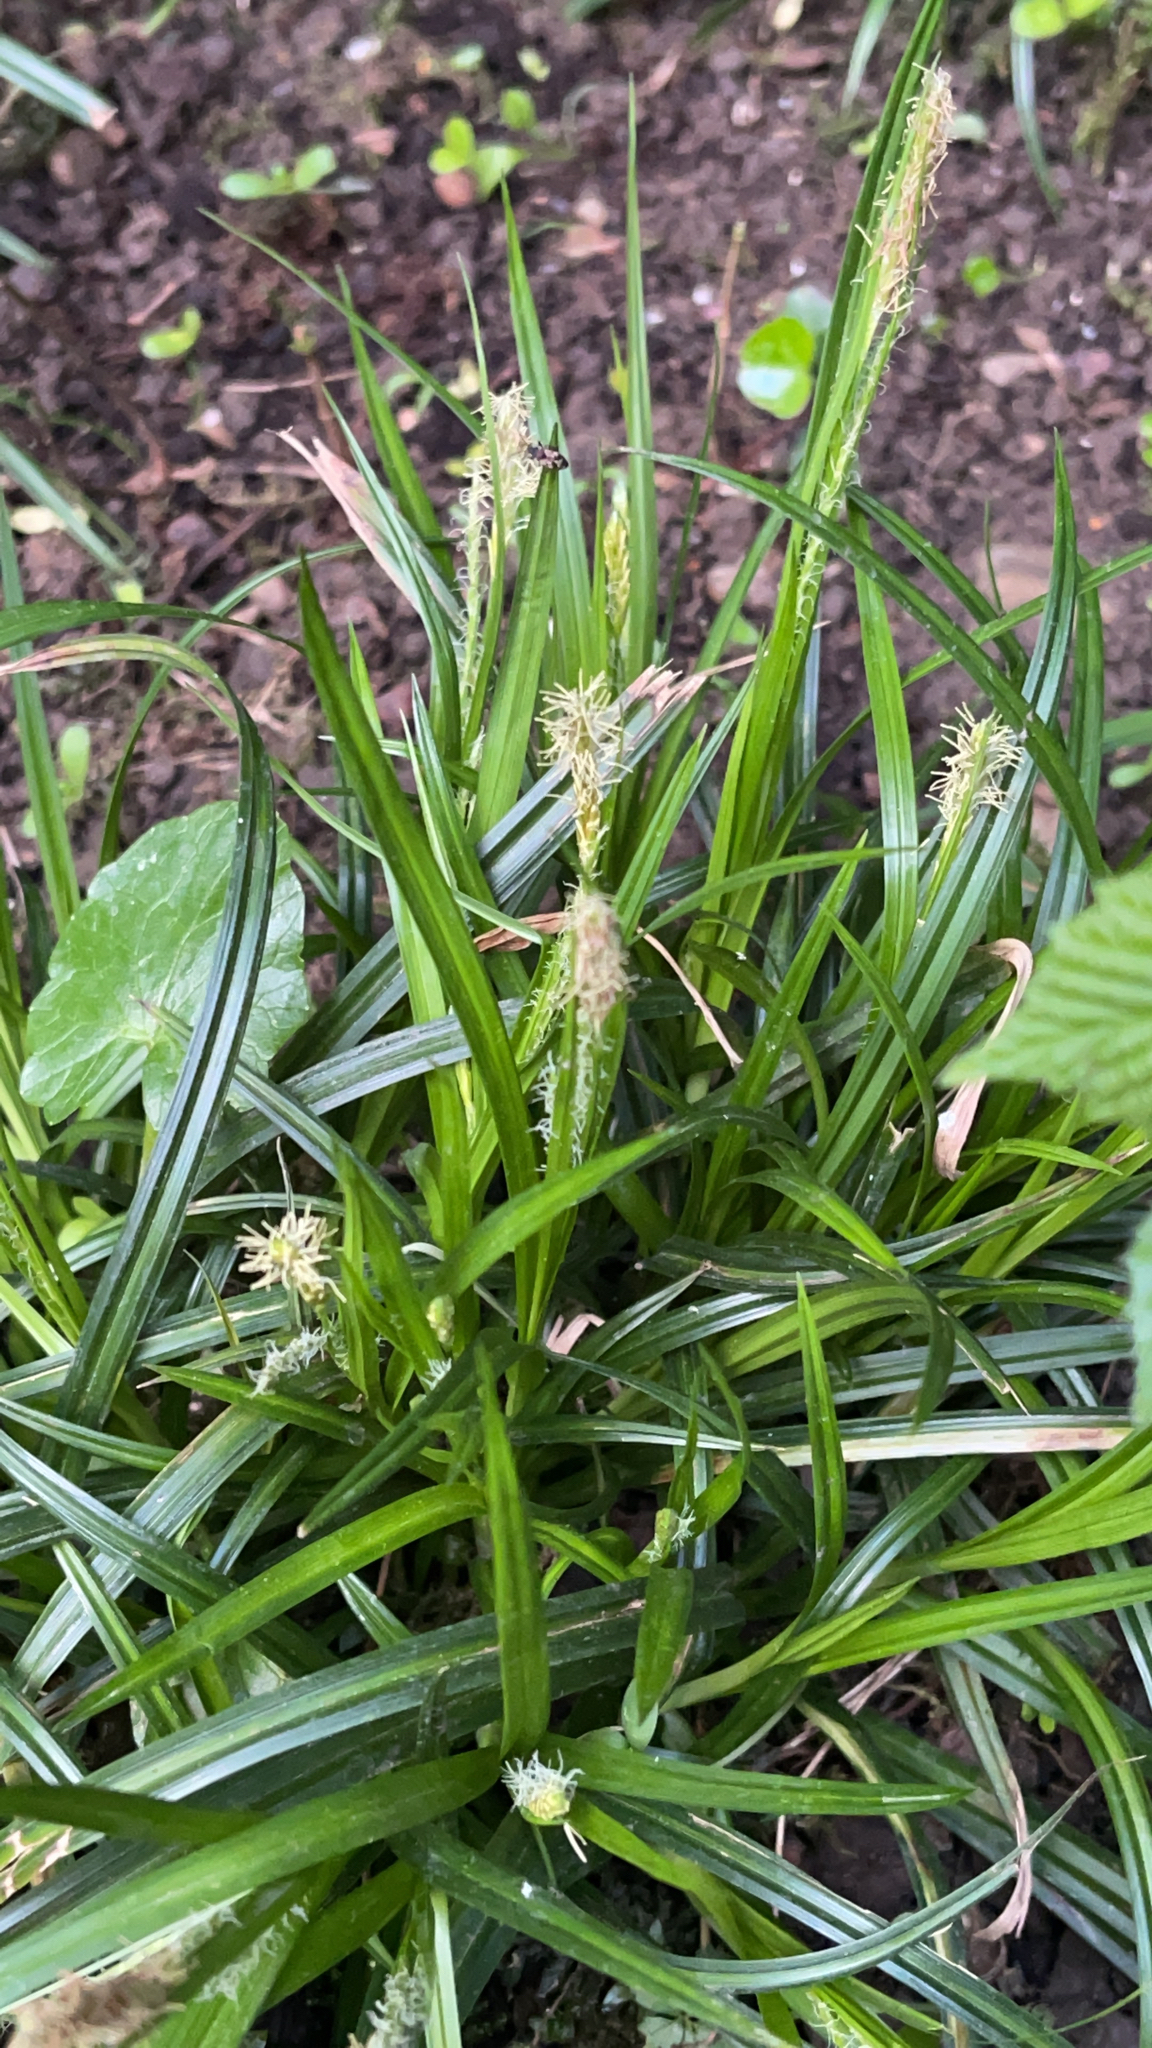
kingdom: Plantae
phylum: Tracheophyta
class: Liliopsida
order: Poales
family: Cyperaceae
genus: Carex
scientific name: Carex sylvatica
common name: Wood-sedge
